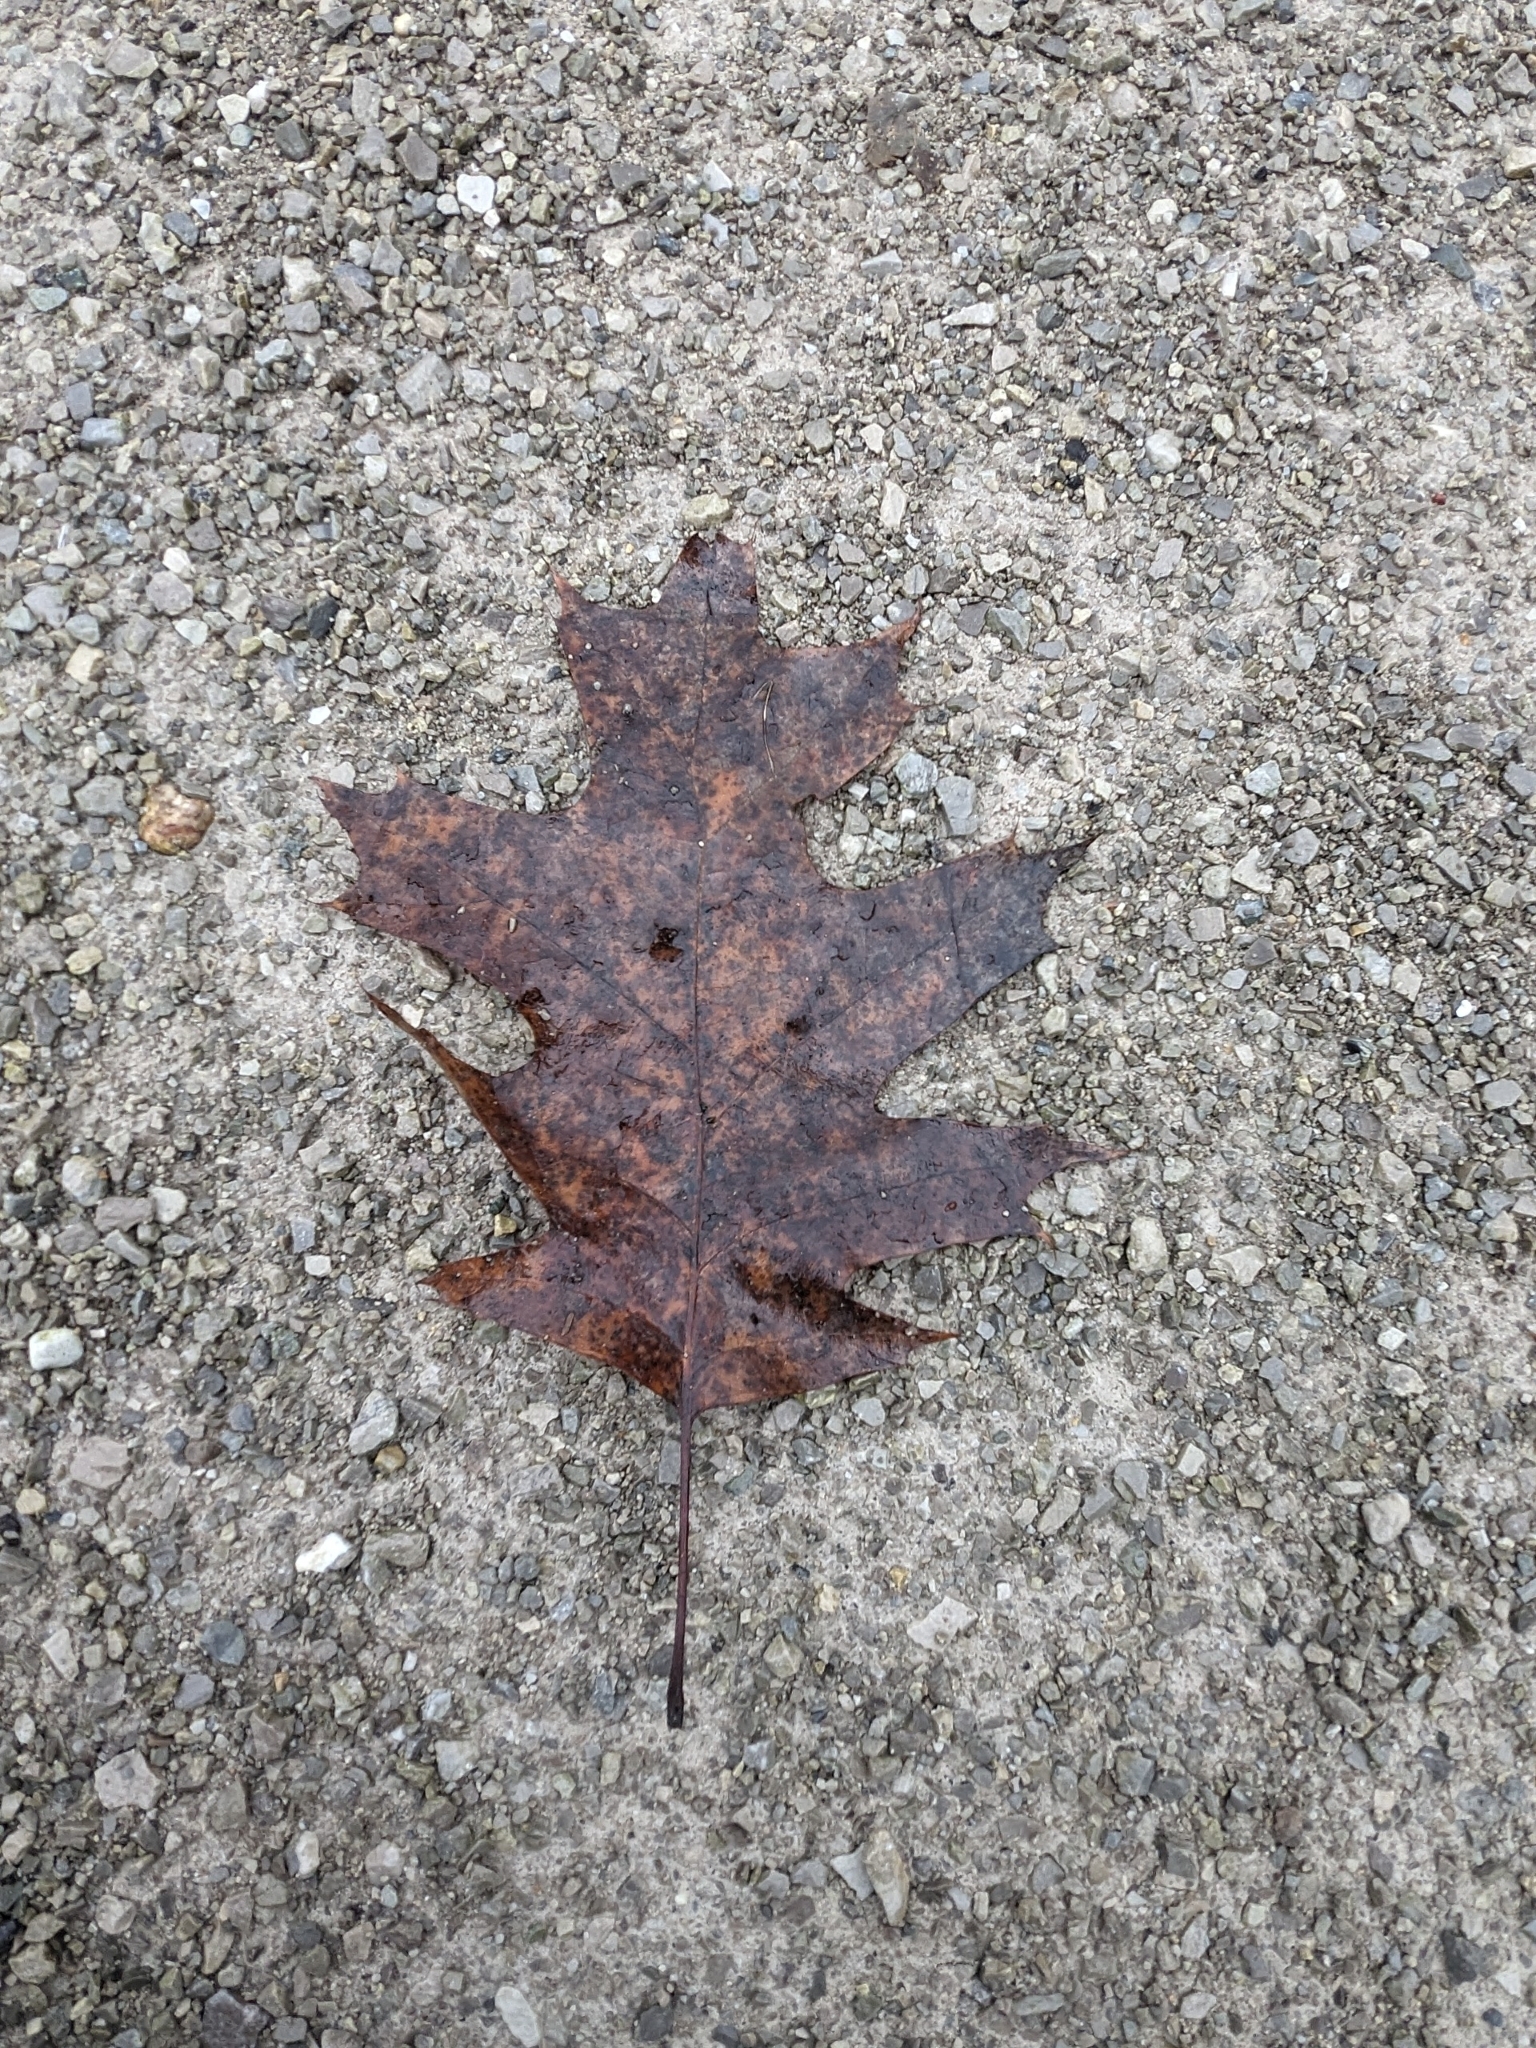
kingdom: Plantae
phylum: Tracheophyta
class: Magnoliopsida
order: Fagales
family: Fagaceae
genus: Quercus
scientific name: Quercus rubra
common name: Red oak
